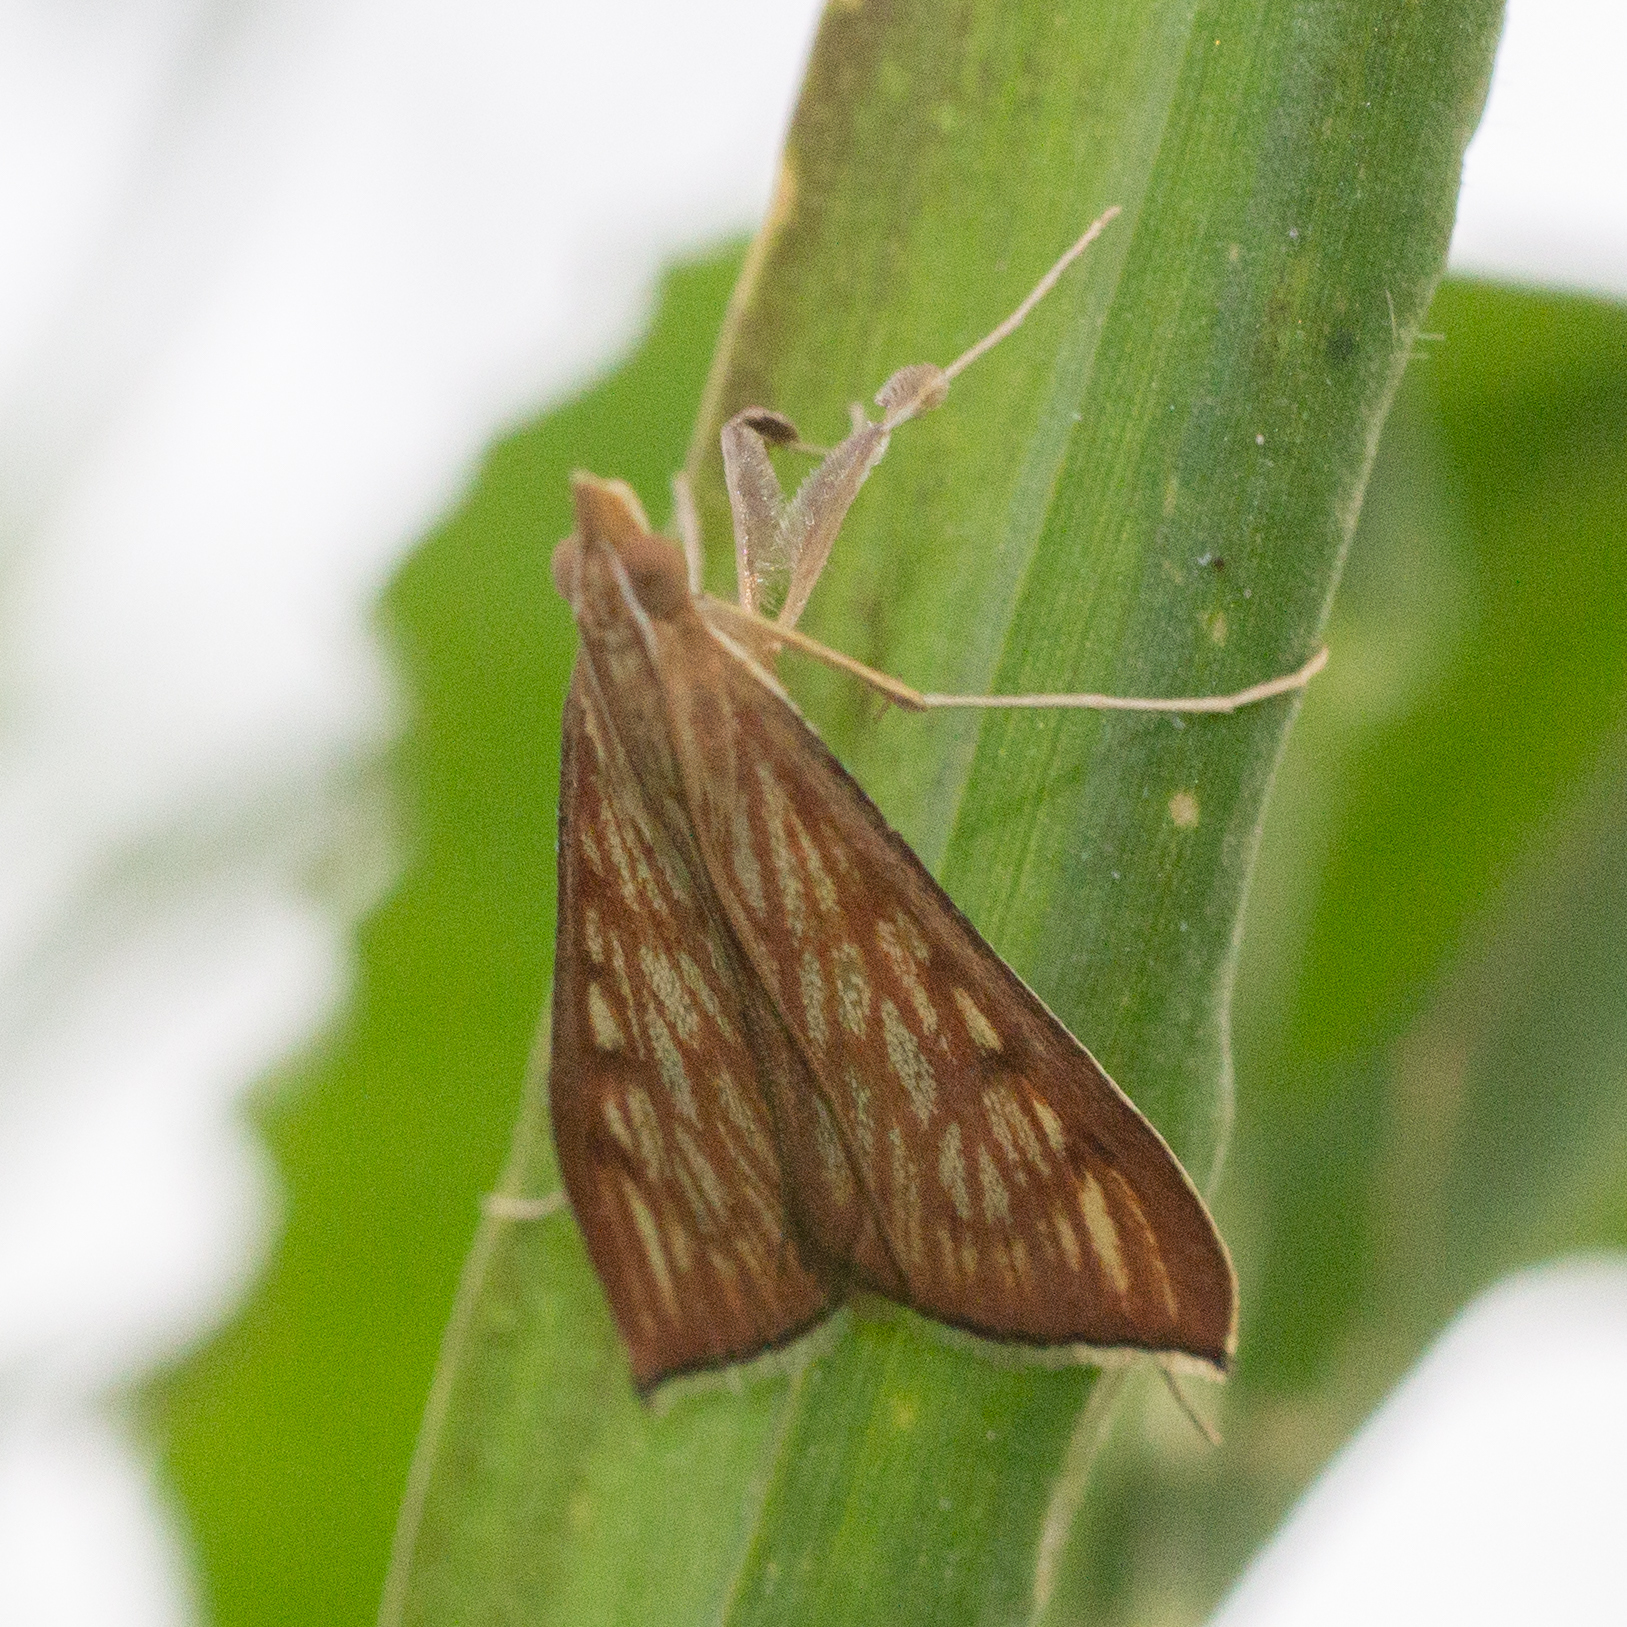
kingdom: Animalia
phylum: Arthropoda
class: Insecta
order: Lepidoptera
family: Crambidae
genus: Antigastra
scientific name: Antigastra catalaunalis
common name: Spanish dot
